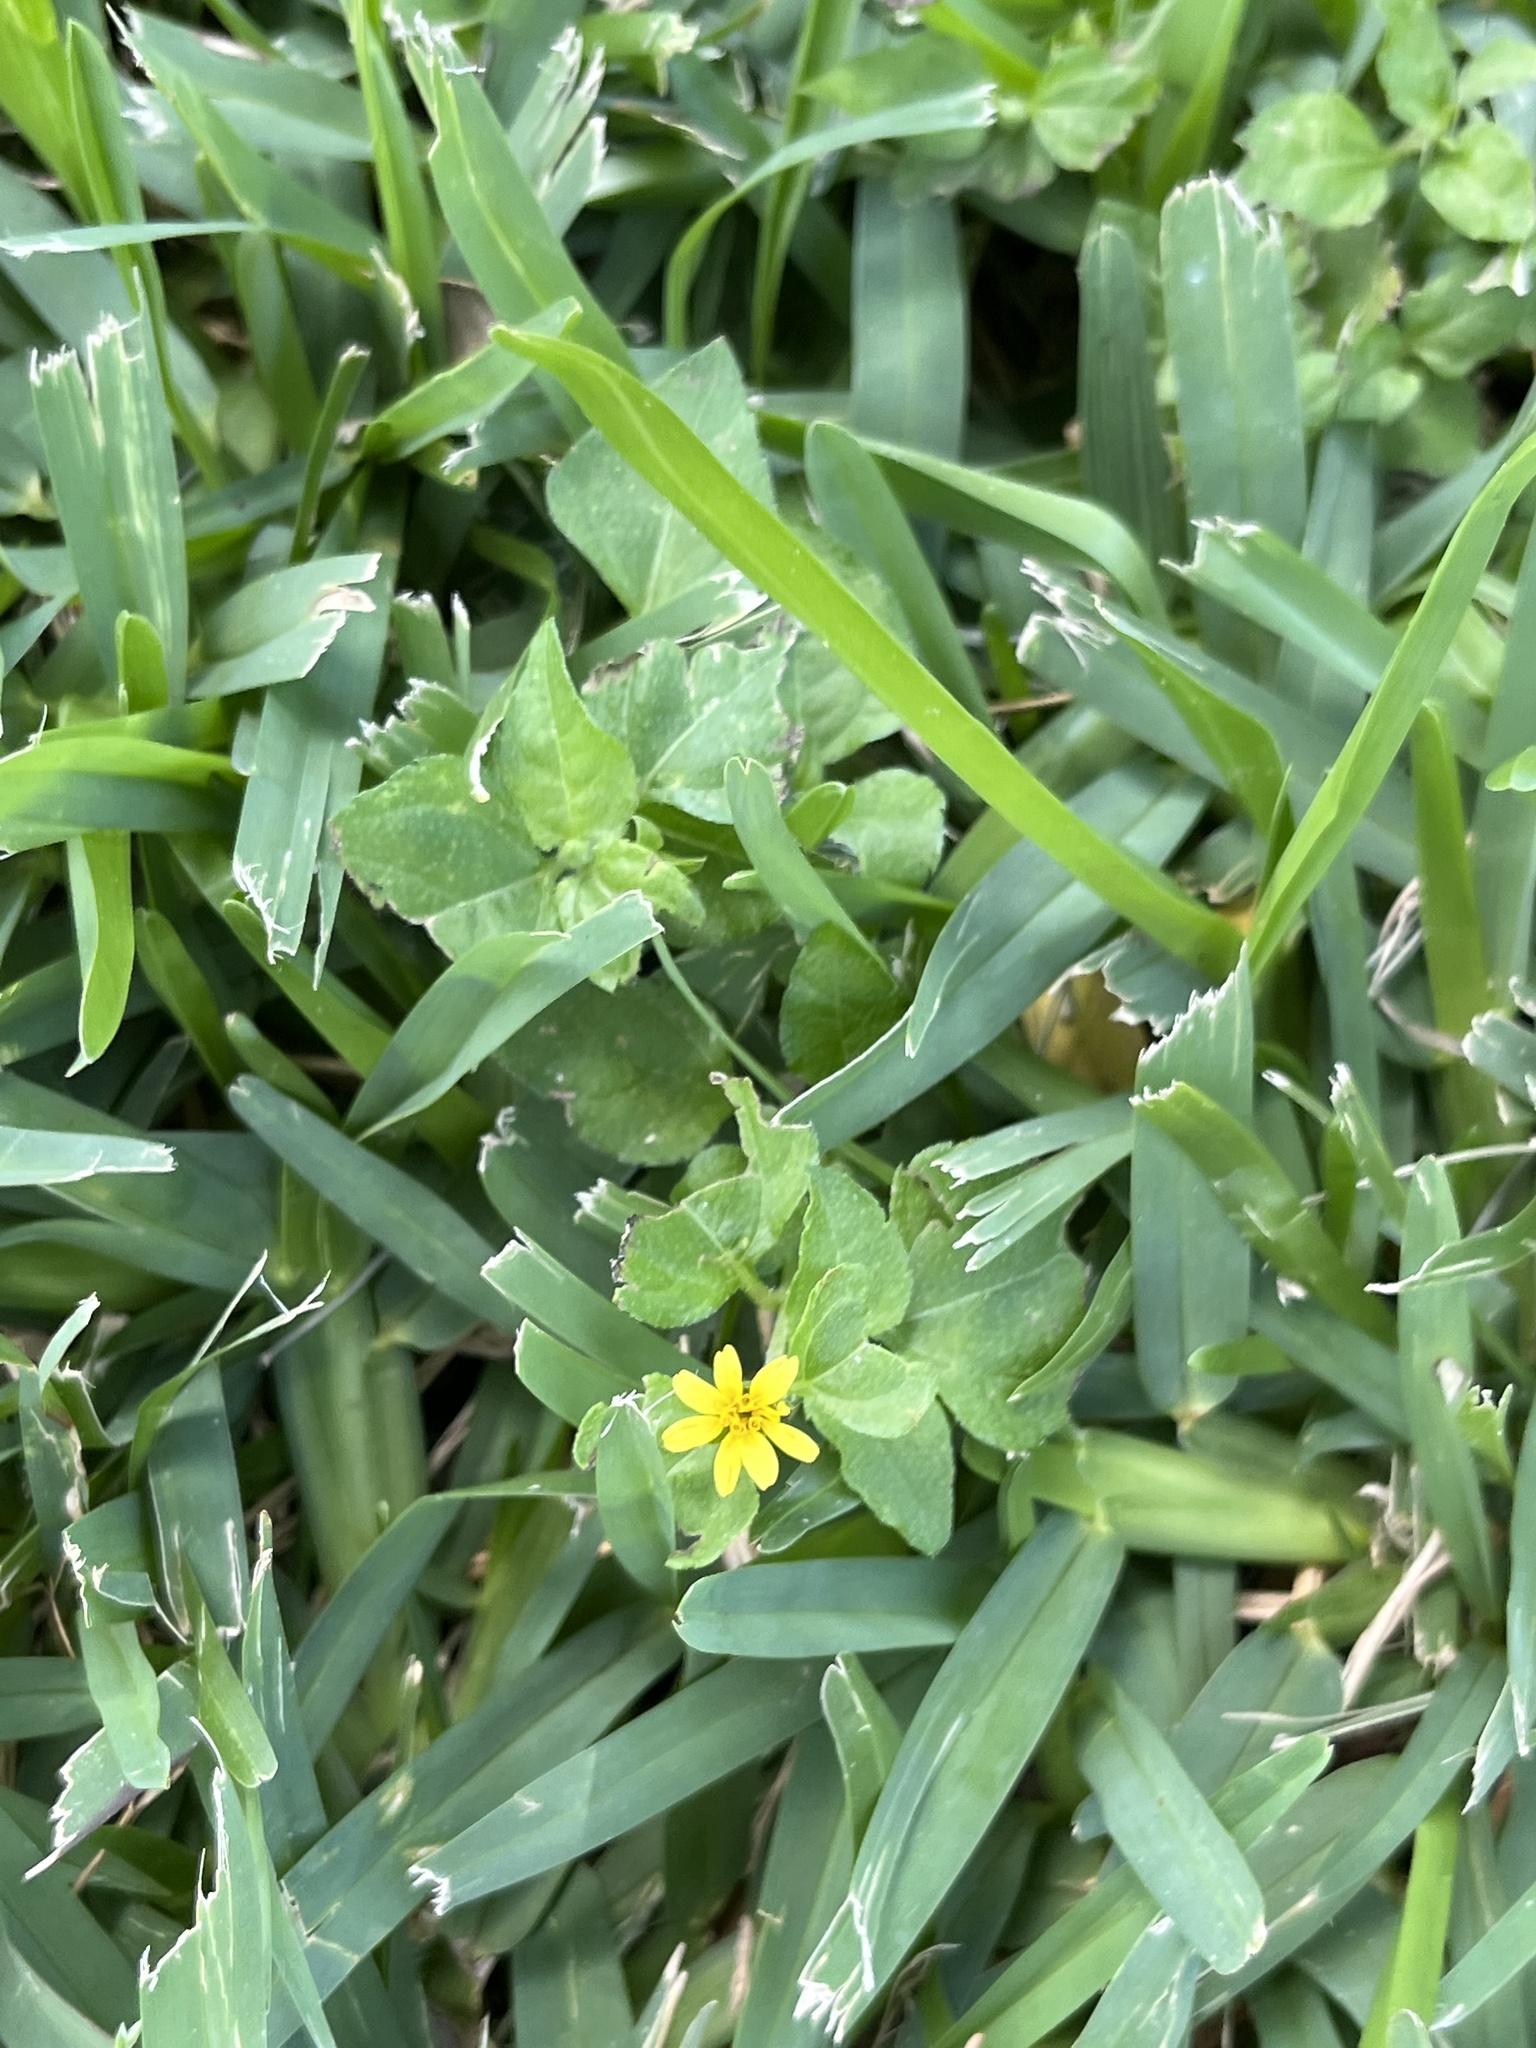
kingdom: Plantae
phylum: Tracheophyta
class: Magnoliopsida
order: Asterales
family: Asteraceae
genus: Calyptocarpus
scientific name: Calyptocarpus vialis
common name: Straggler daisy
